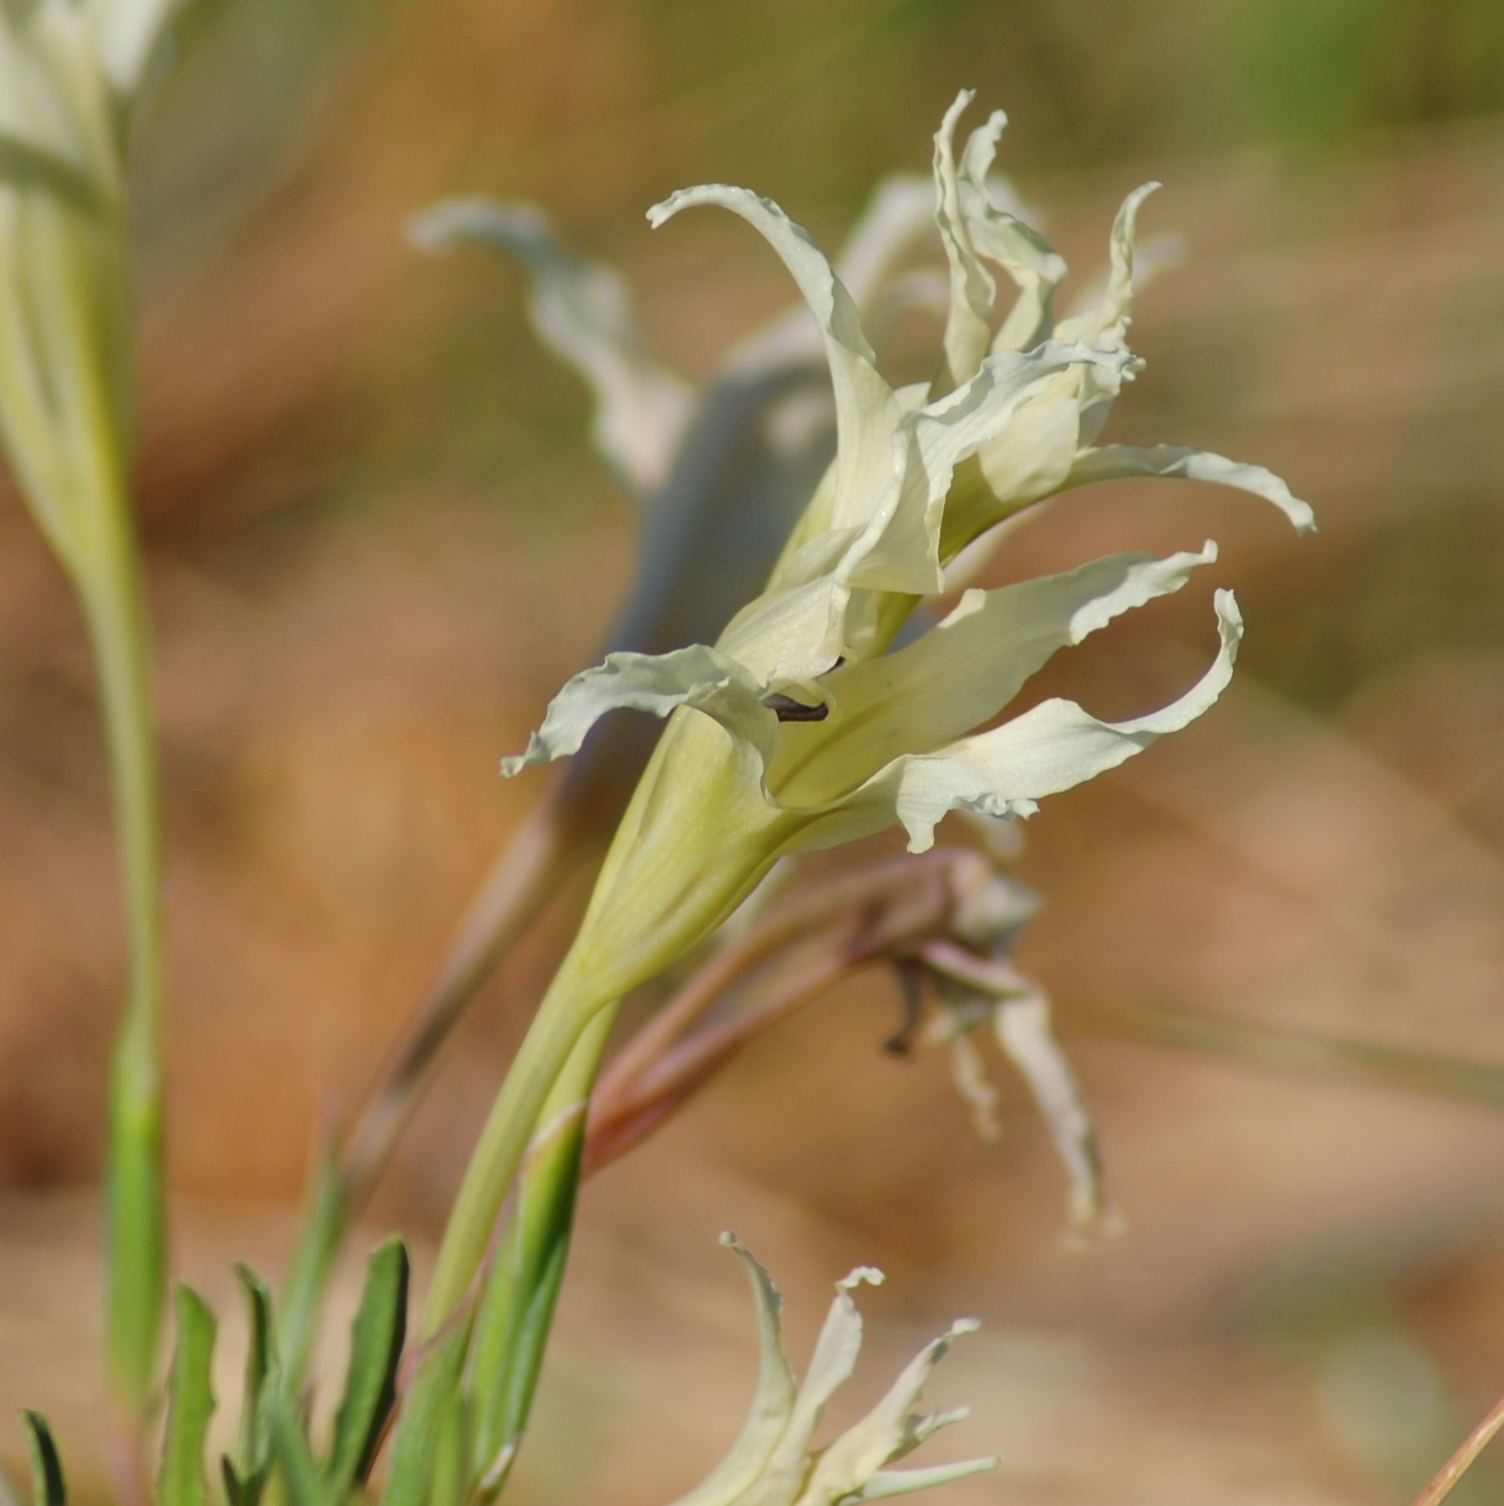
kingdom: Plantae
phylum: Tracheophyta
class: Liliopsida
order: Asparagales
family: Iridaceae
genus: Gladiolus
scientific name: Gladiolus undulatus
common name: Large painted-lady
